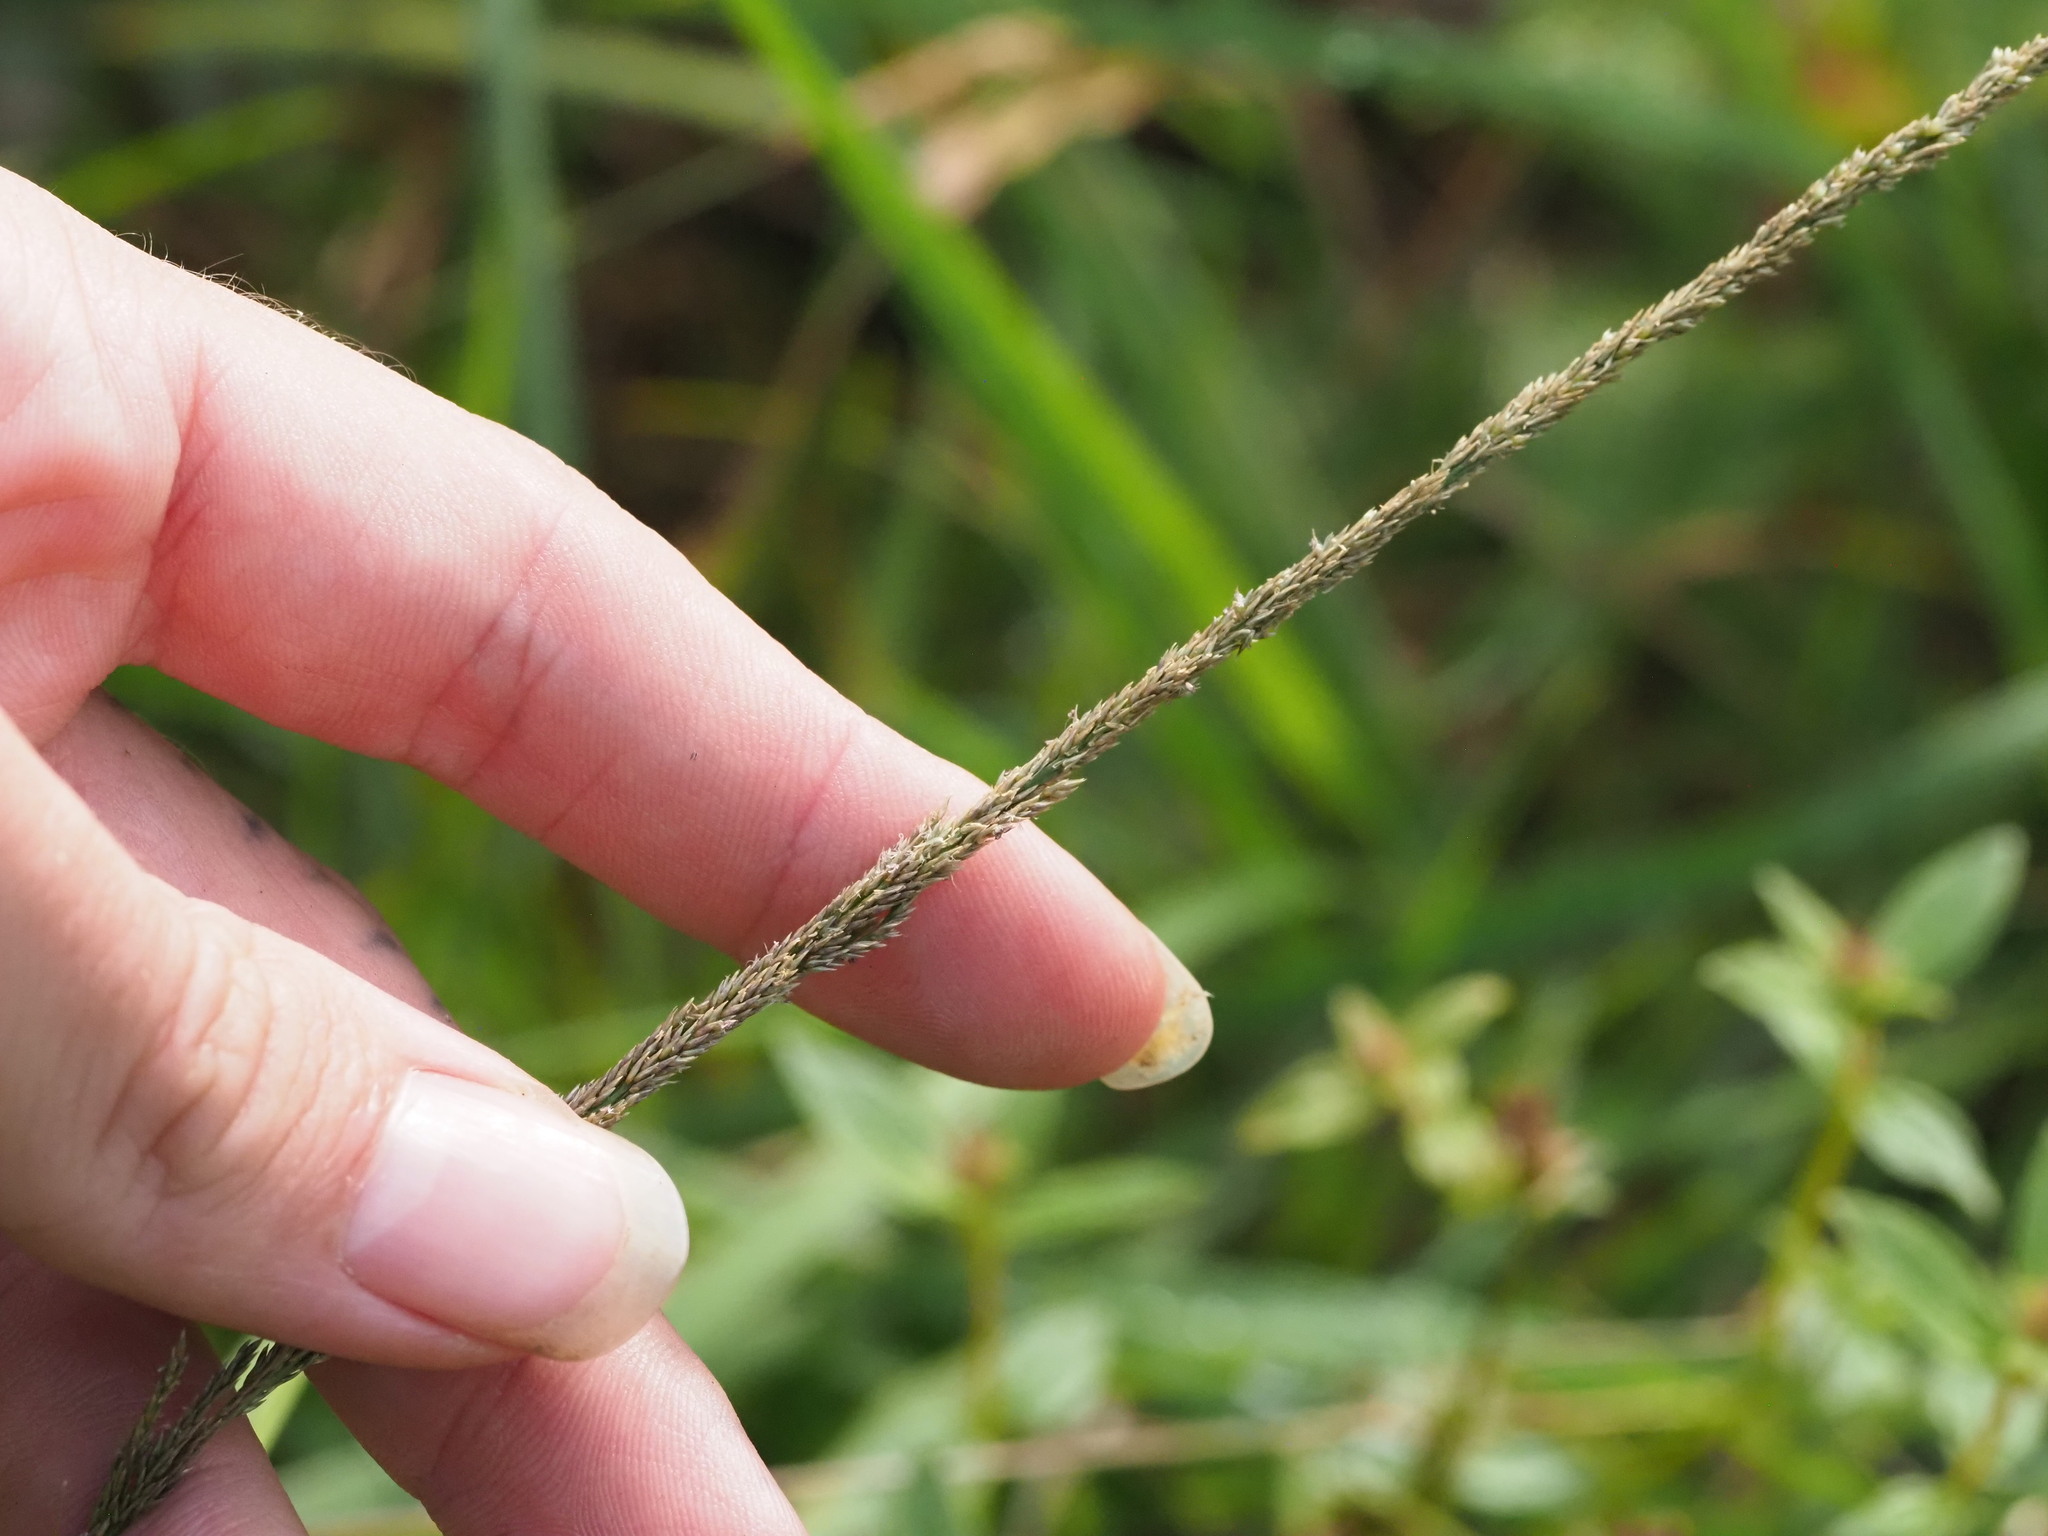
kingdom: Plantae
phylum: Tracheophyta
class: Liliopsida
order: Poales
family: Poaceae
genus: Sporobolus
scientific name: Sporobolus fertilis
